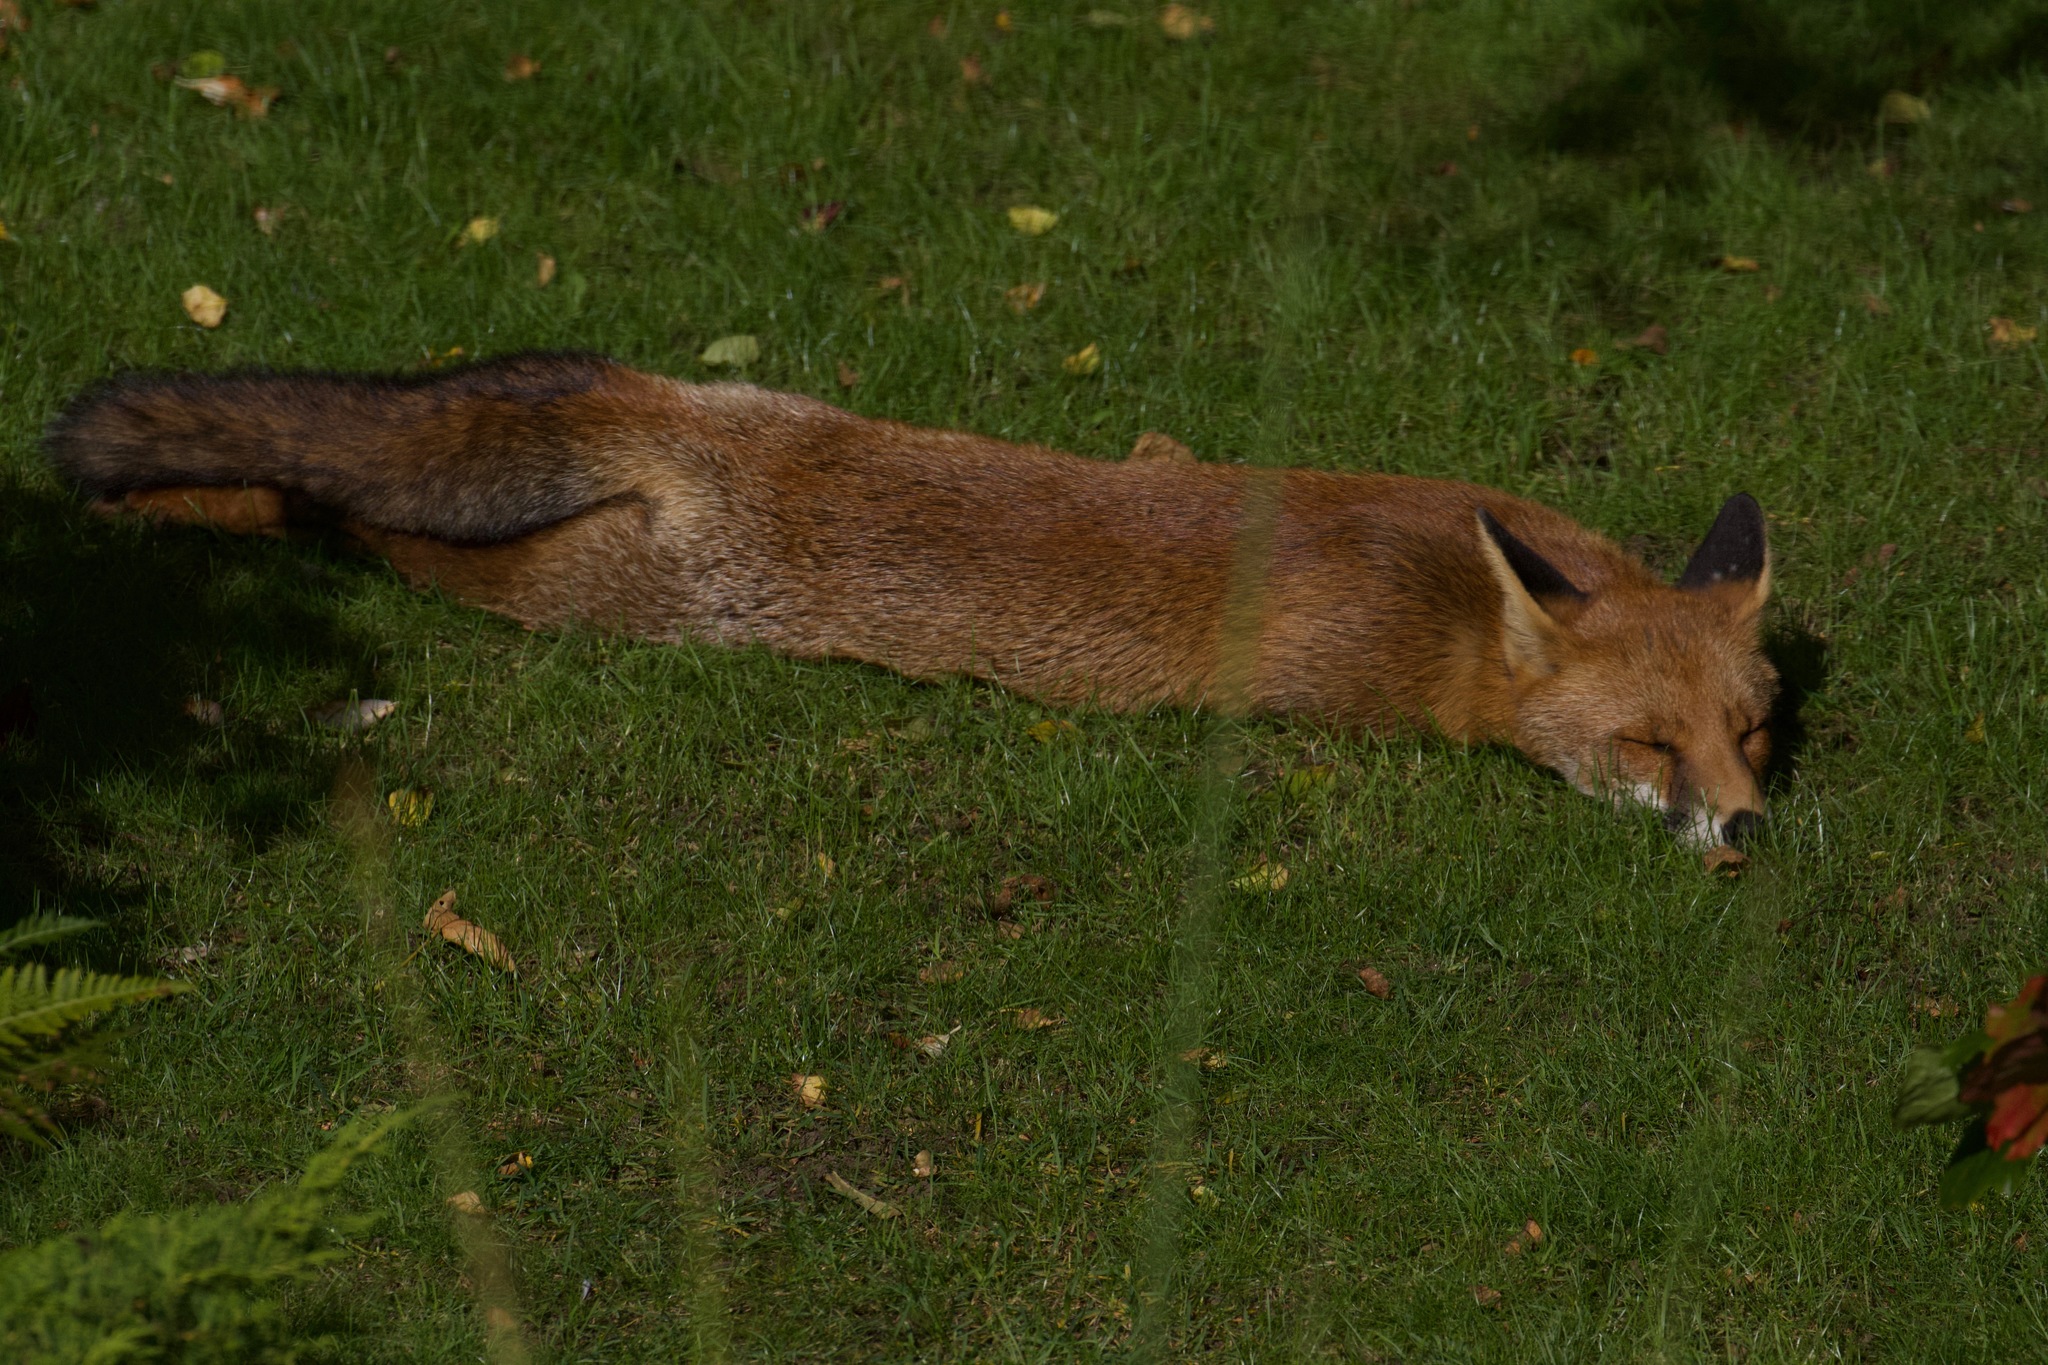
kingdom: Animalia
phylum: Chordata
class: Mammalia
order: Carnivora
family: Canidae
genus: Vulpes
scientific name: Vulpes vulpes
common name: Red fox
